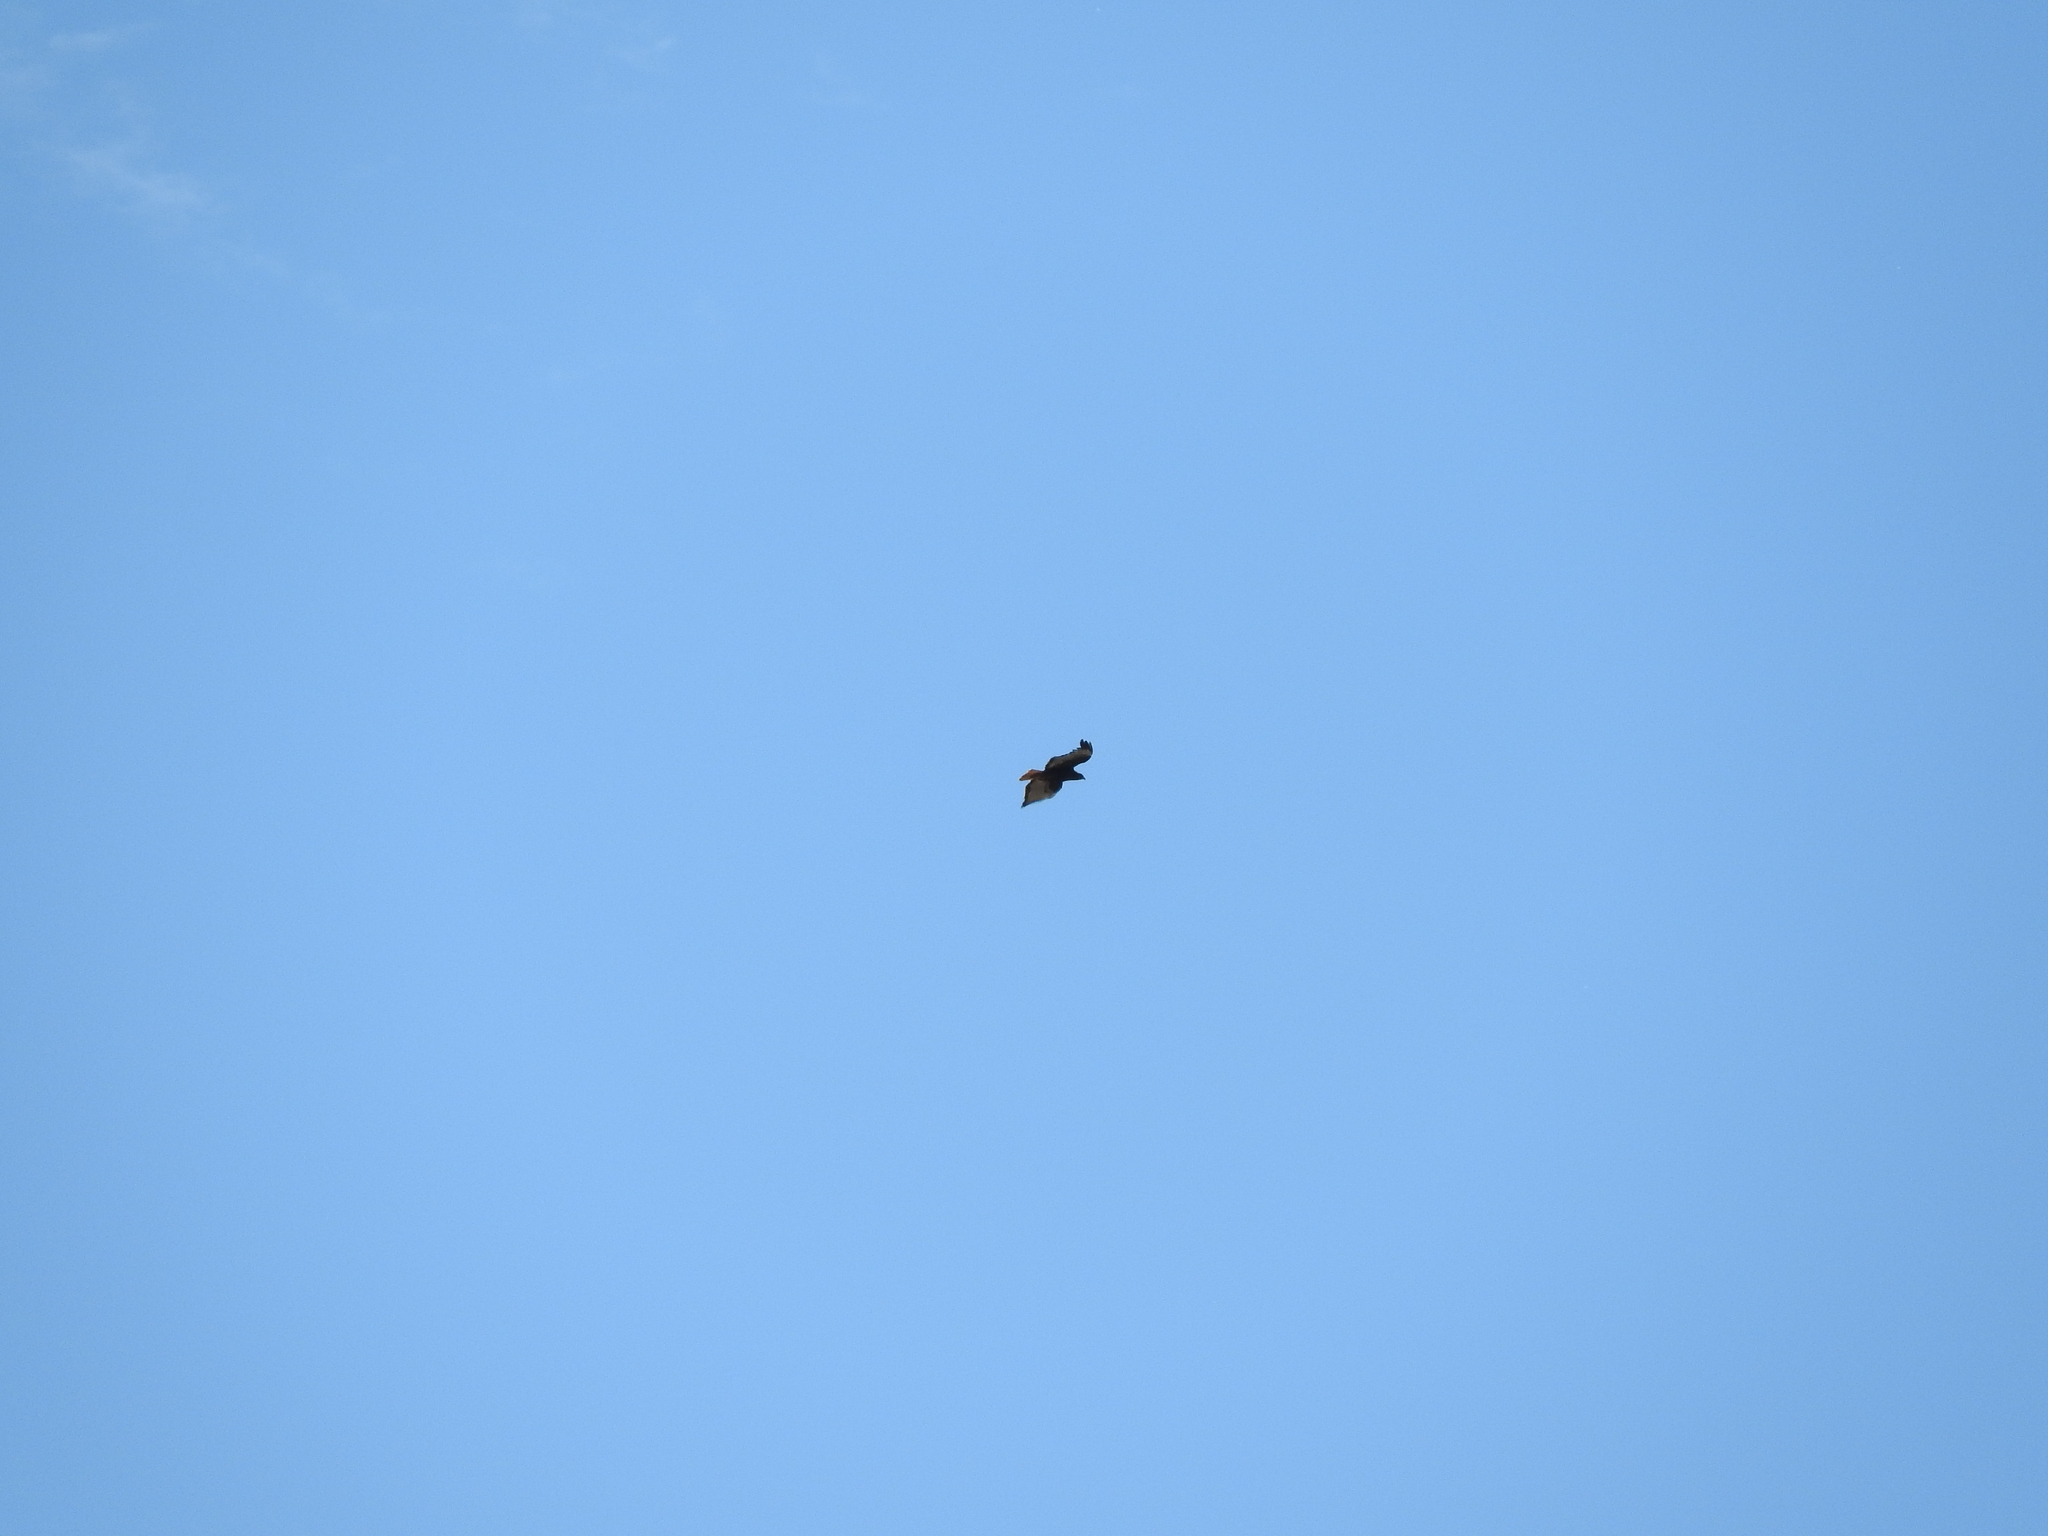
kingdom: Animalia
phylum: Chordata
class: Aves
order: Accipitriformes
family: Accipitridae
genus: Buteo
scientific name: Buteo jamaicensis
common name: Red-tailed hawk
